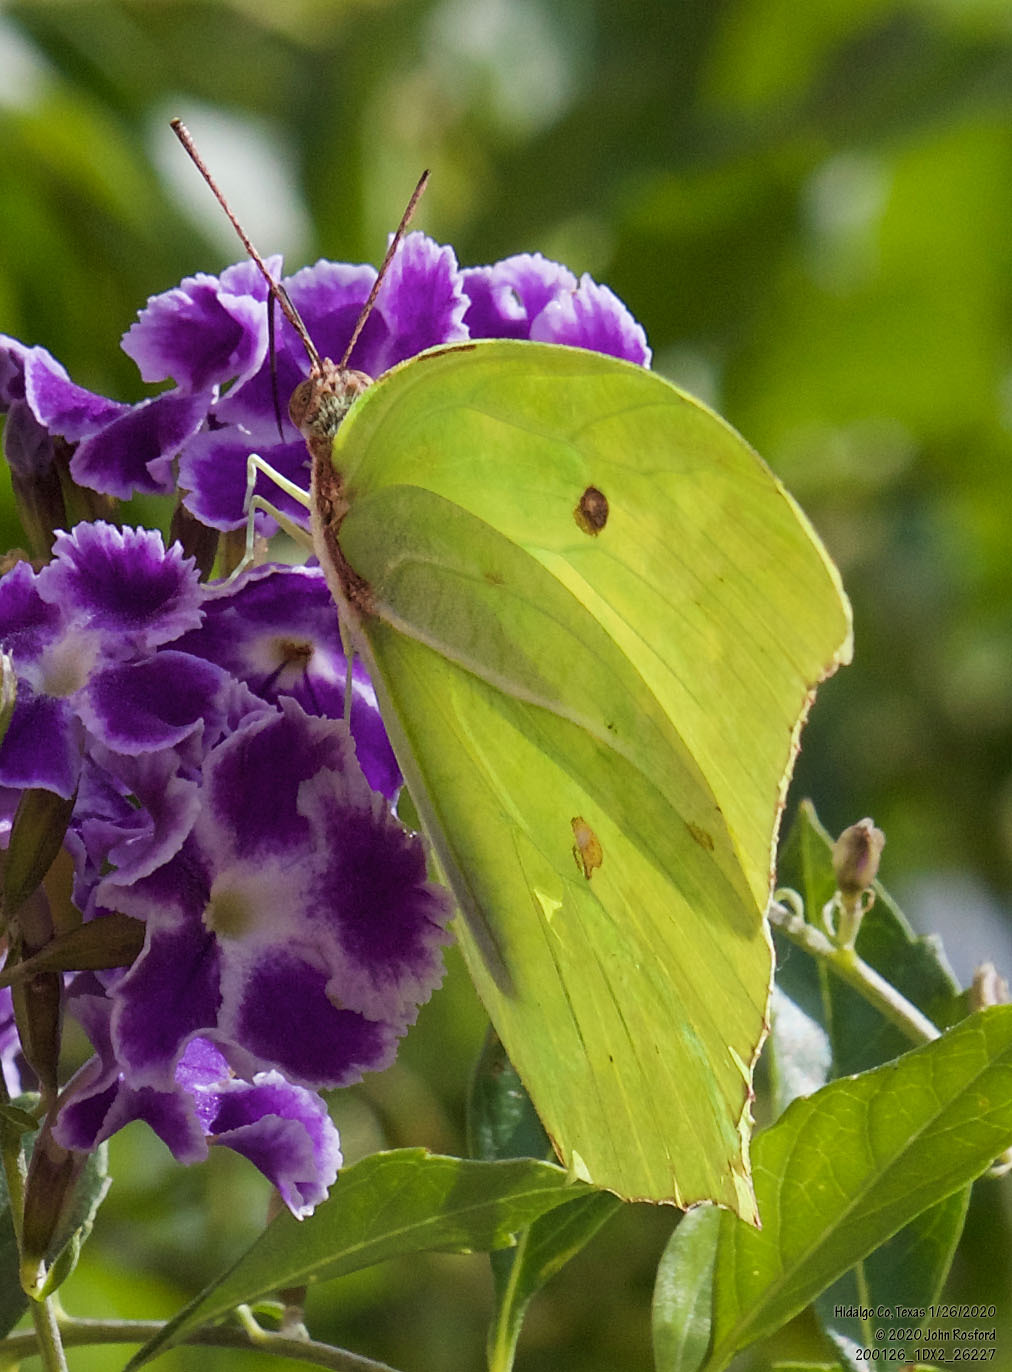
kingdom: Animalia
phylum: Arthropoda
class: Insecta
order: Lepidoptera
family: Pieridae
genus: Anteos
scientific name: Anteos maerula
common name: Angled sulphur
